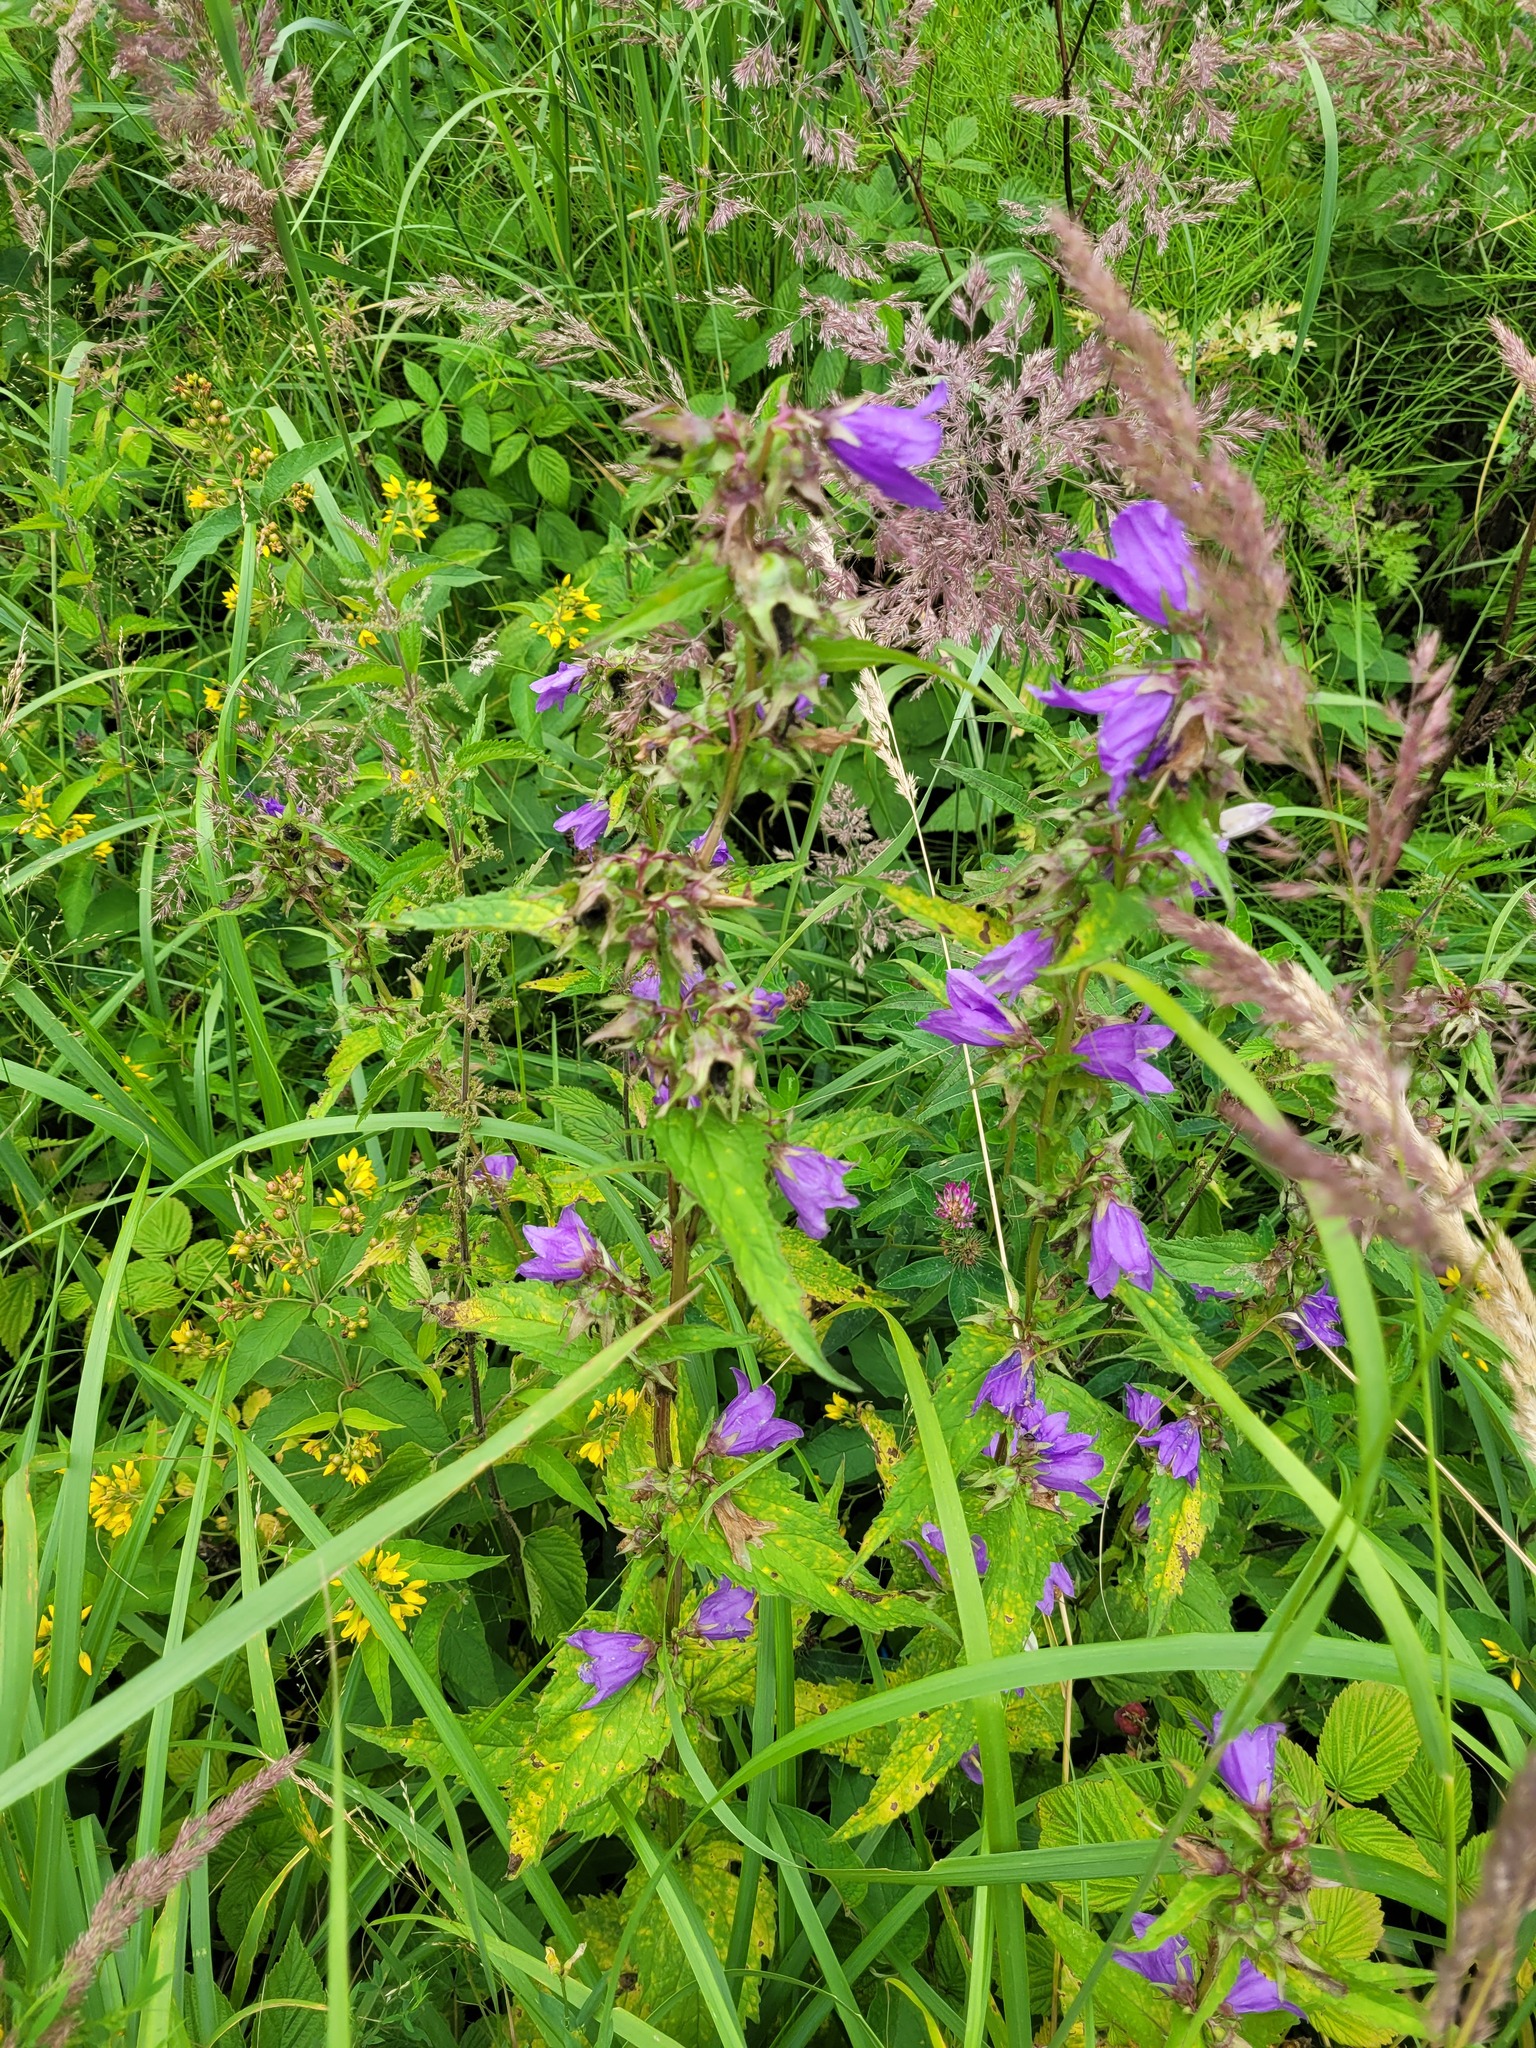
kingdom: Plantae
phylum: Tracheophyta
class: Magnoliopsida
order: Asterales
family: Campanulaceae
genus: Campanula
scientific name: Campanula trachelium
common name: Nettle-leaved bellflower
